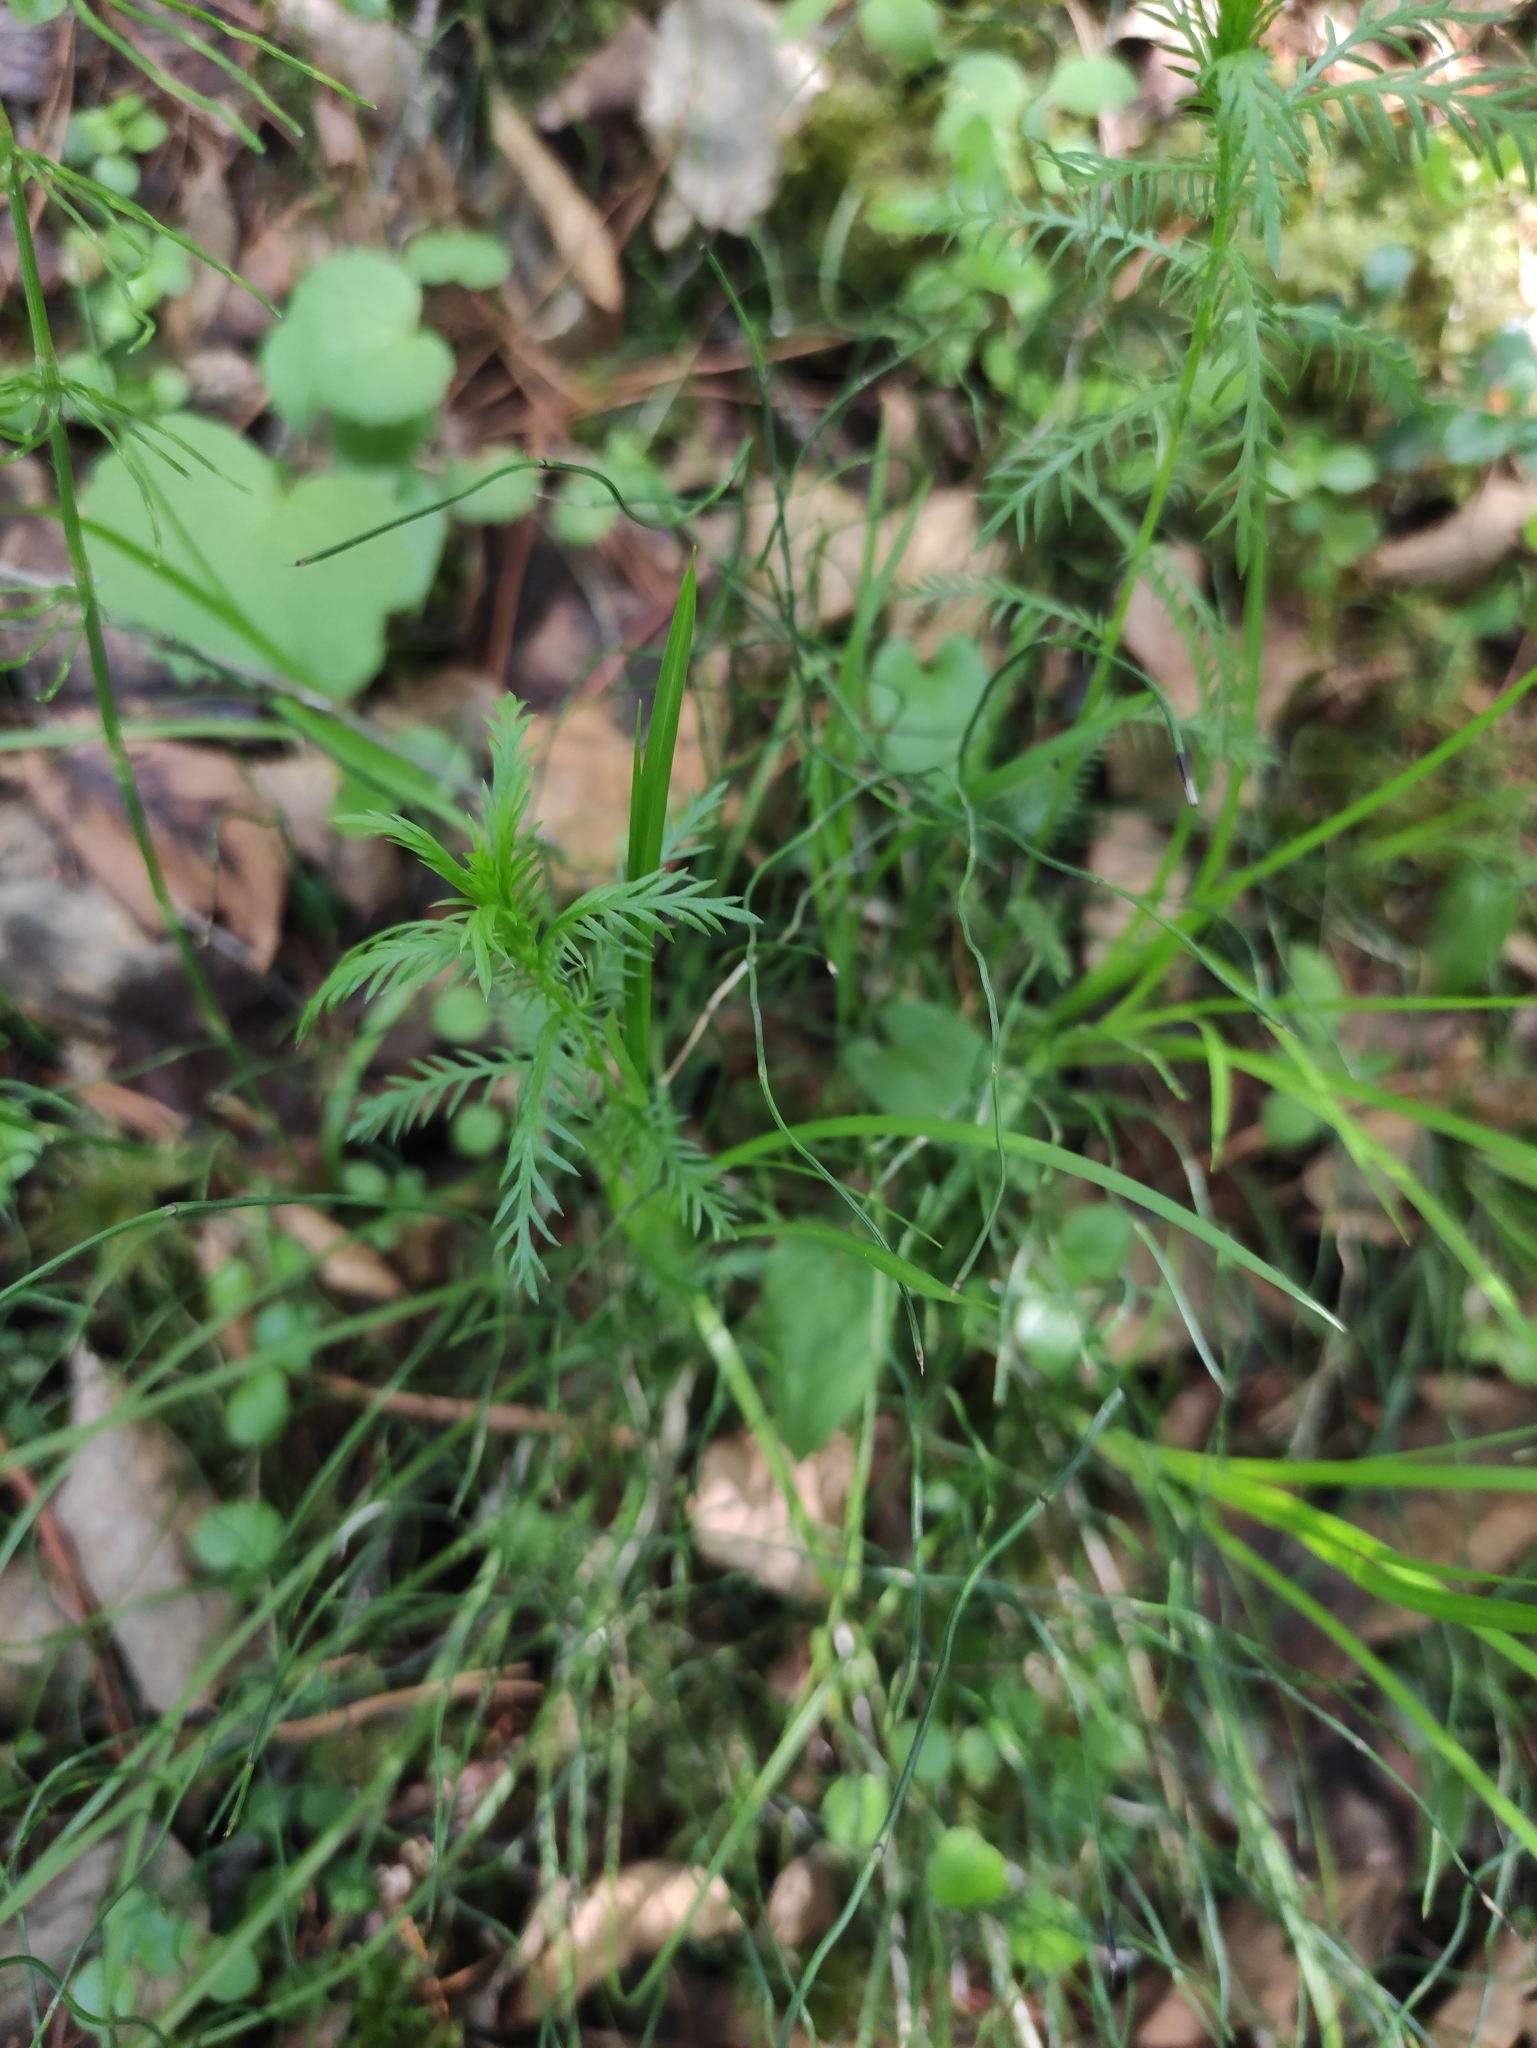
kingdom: Plantae
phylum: Tracheophyta
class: Magnoliopsida
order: Asterales
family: Asteraceae
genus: Achillea
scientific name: Achillea impatiens
